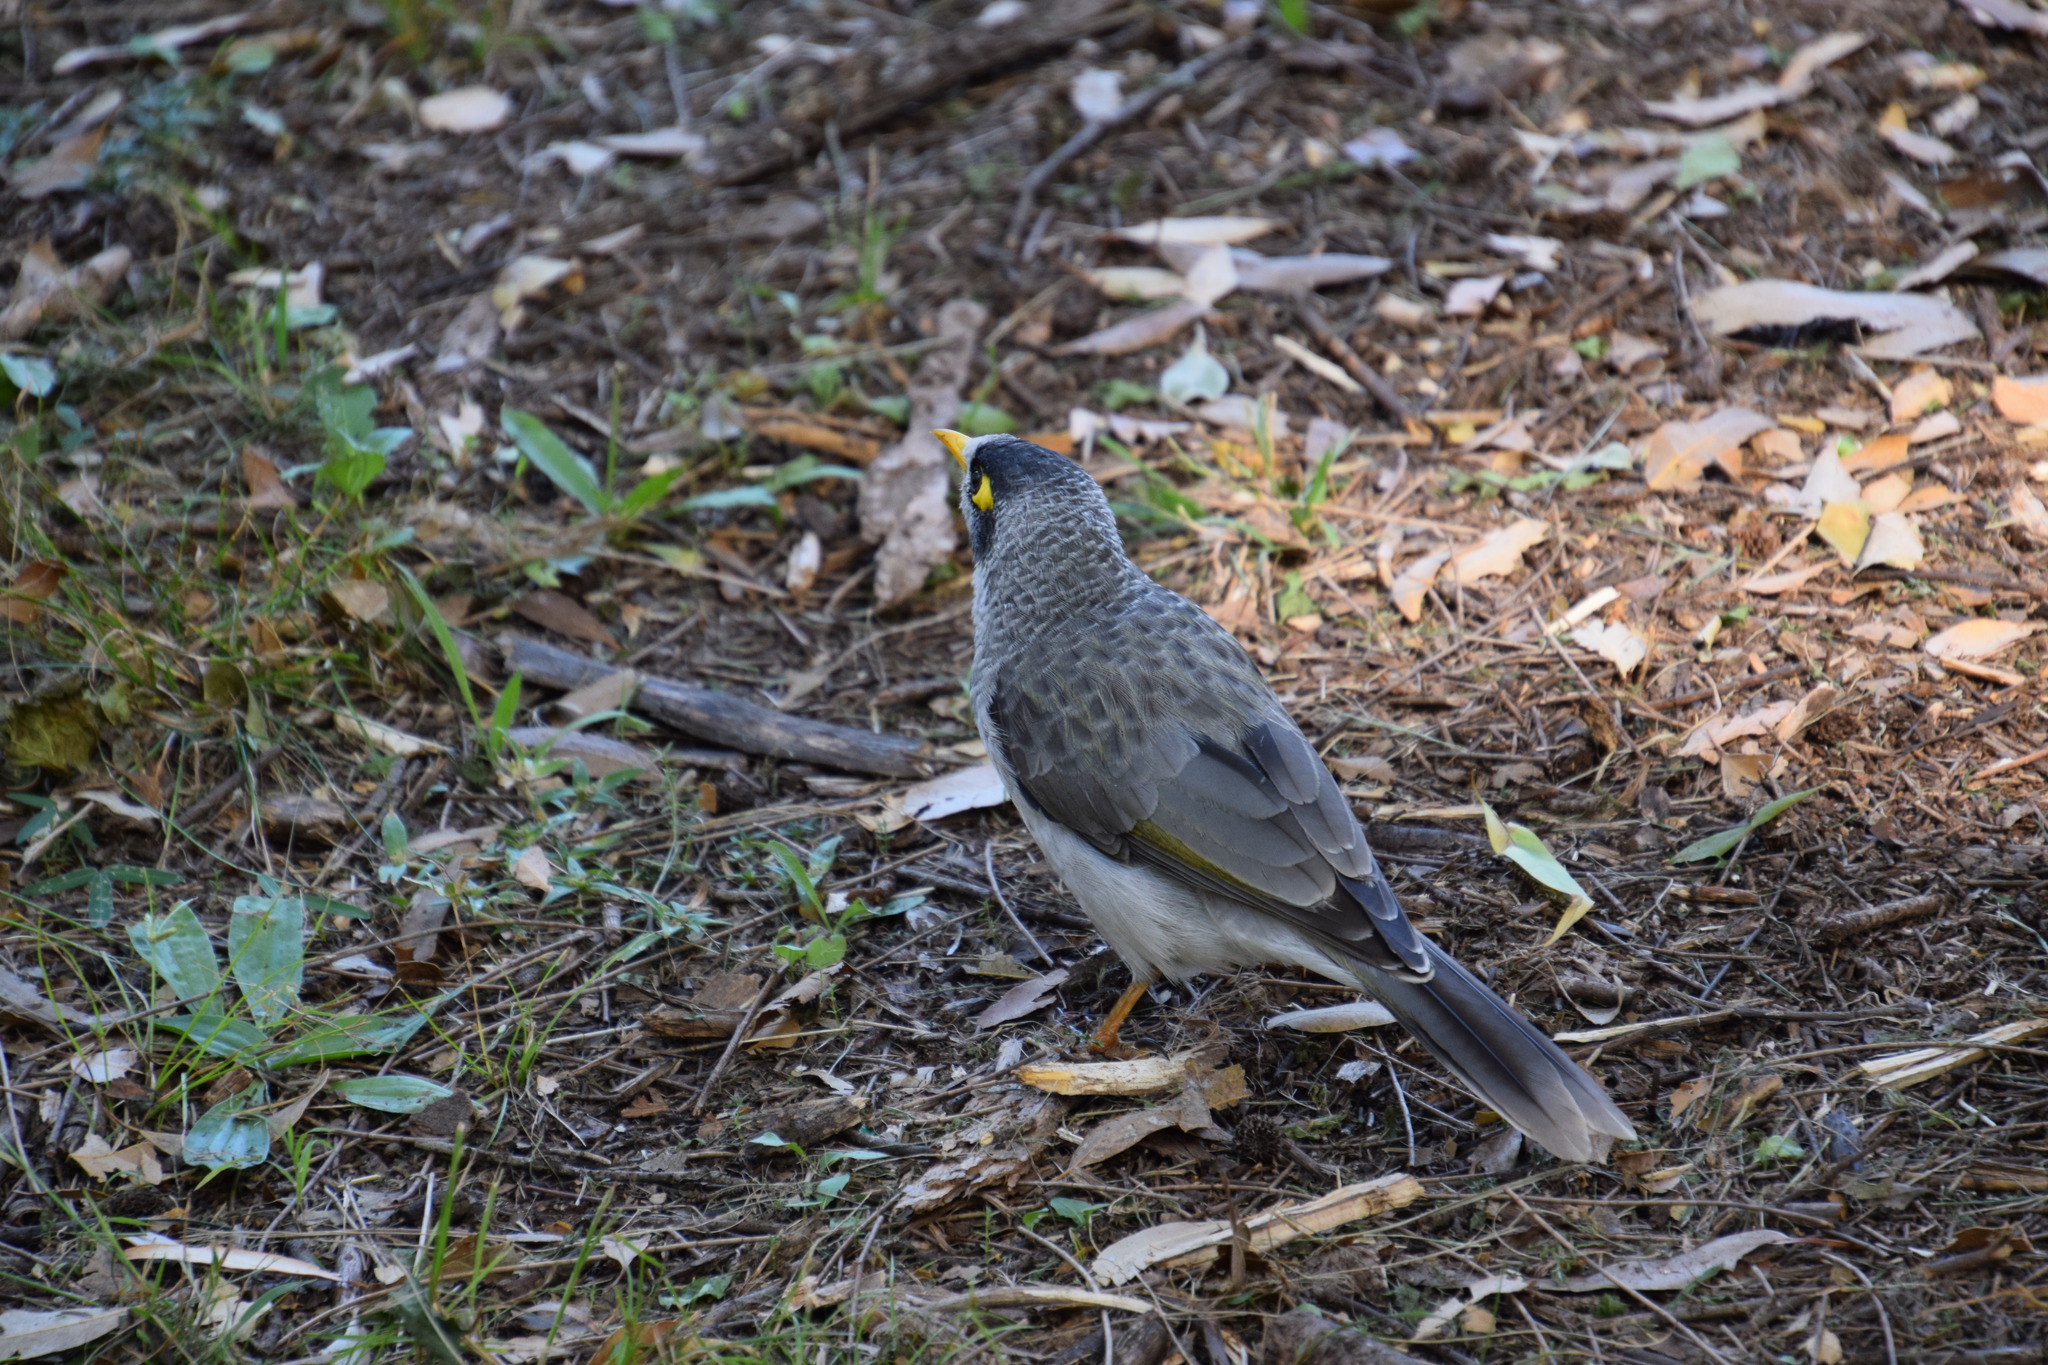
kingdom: Animalia
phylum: Chordata
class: Aves
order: Passeriformes
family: Meliphagidae
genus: Manorina
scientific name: Manorina melanocephala
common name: Noisy miner
